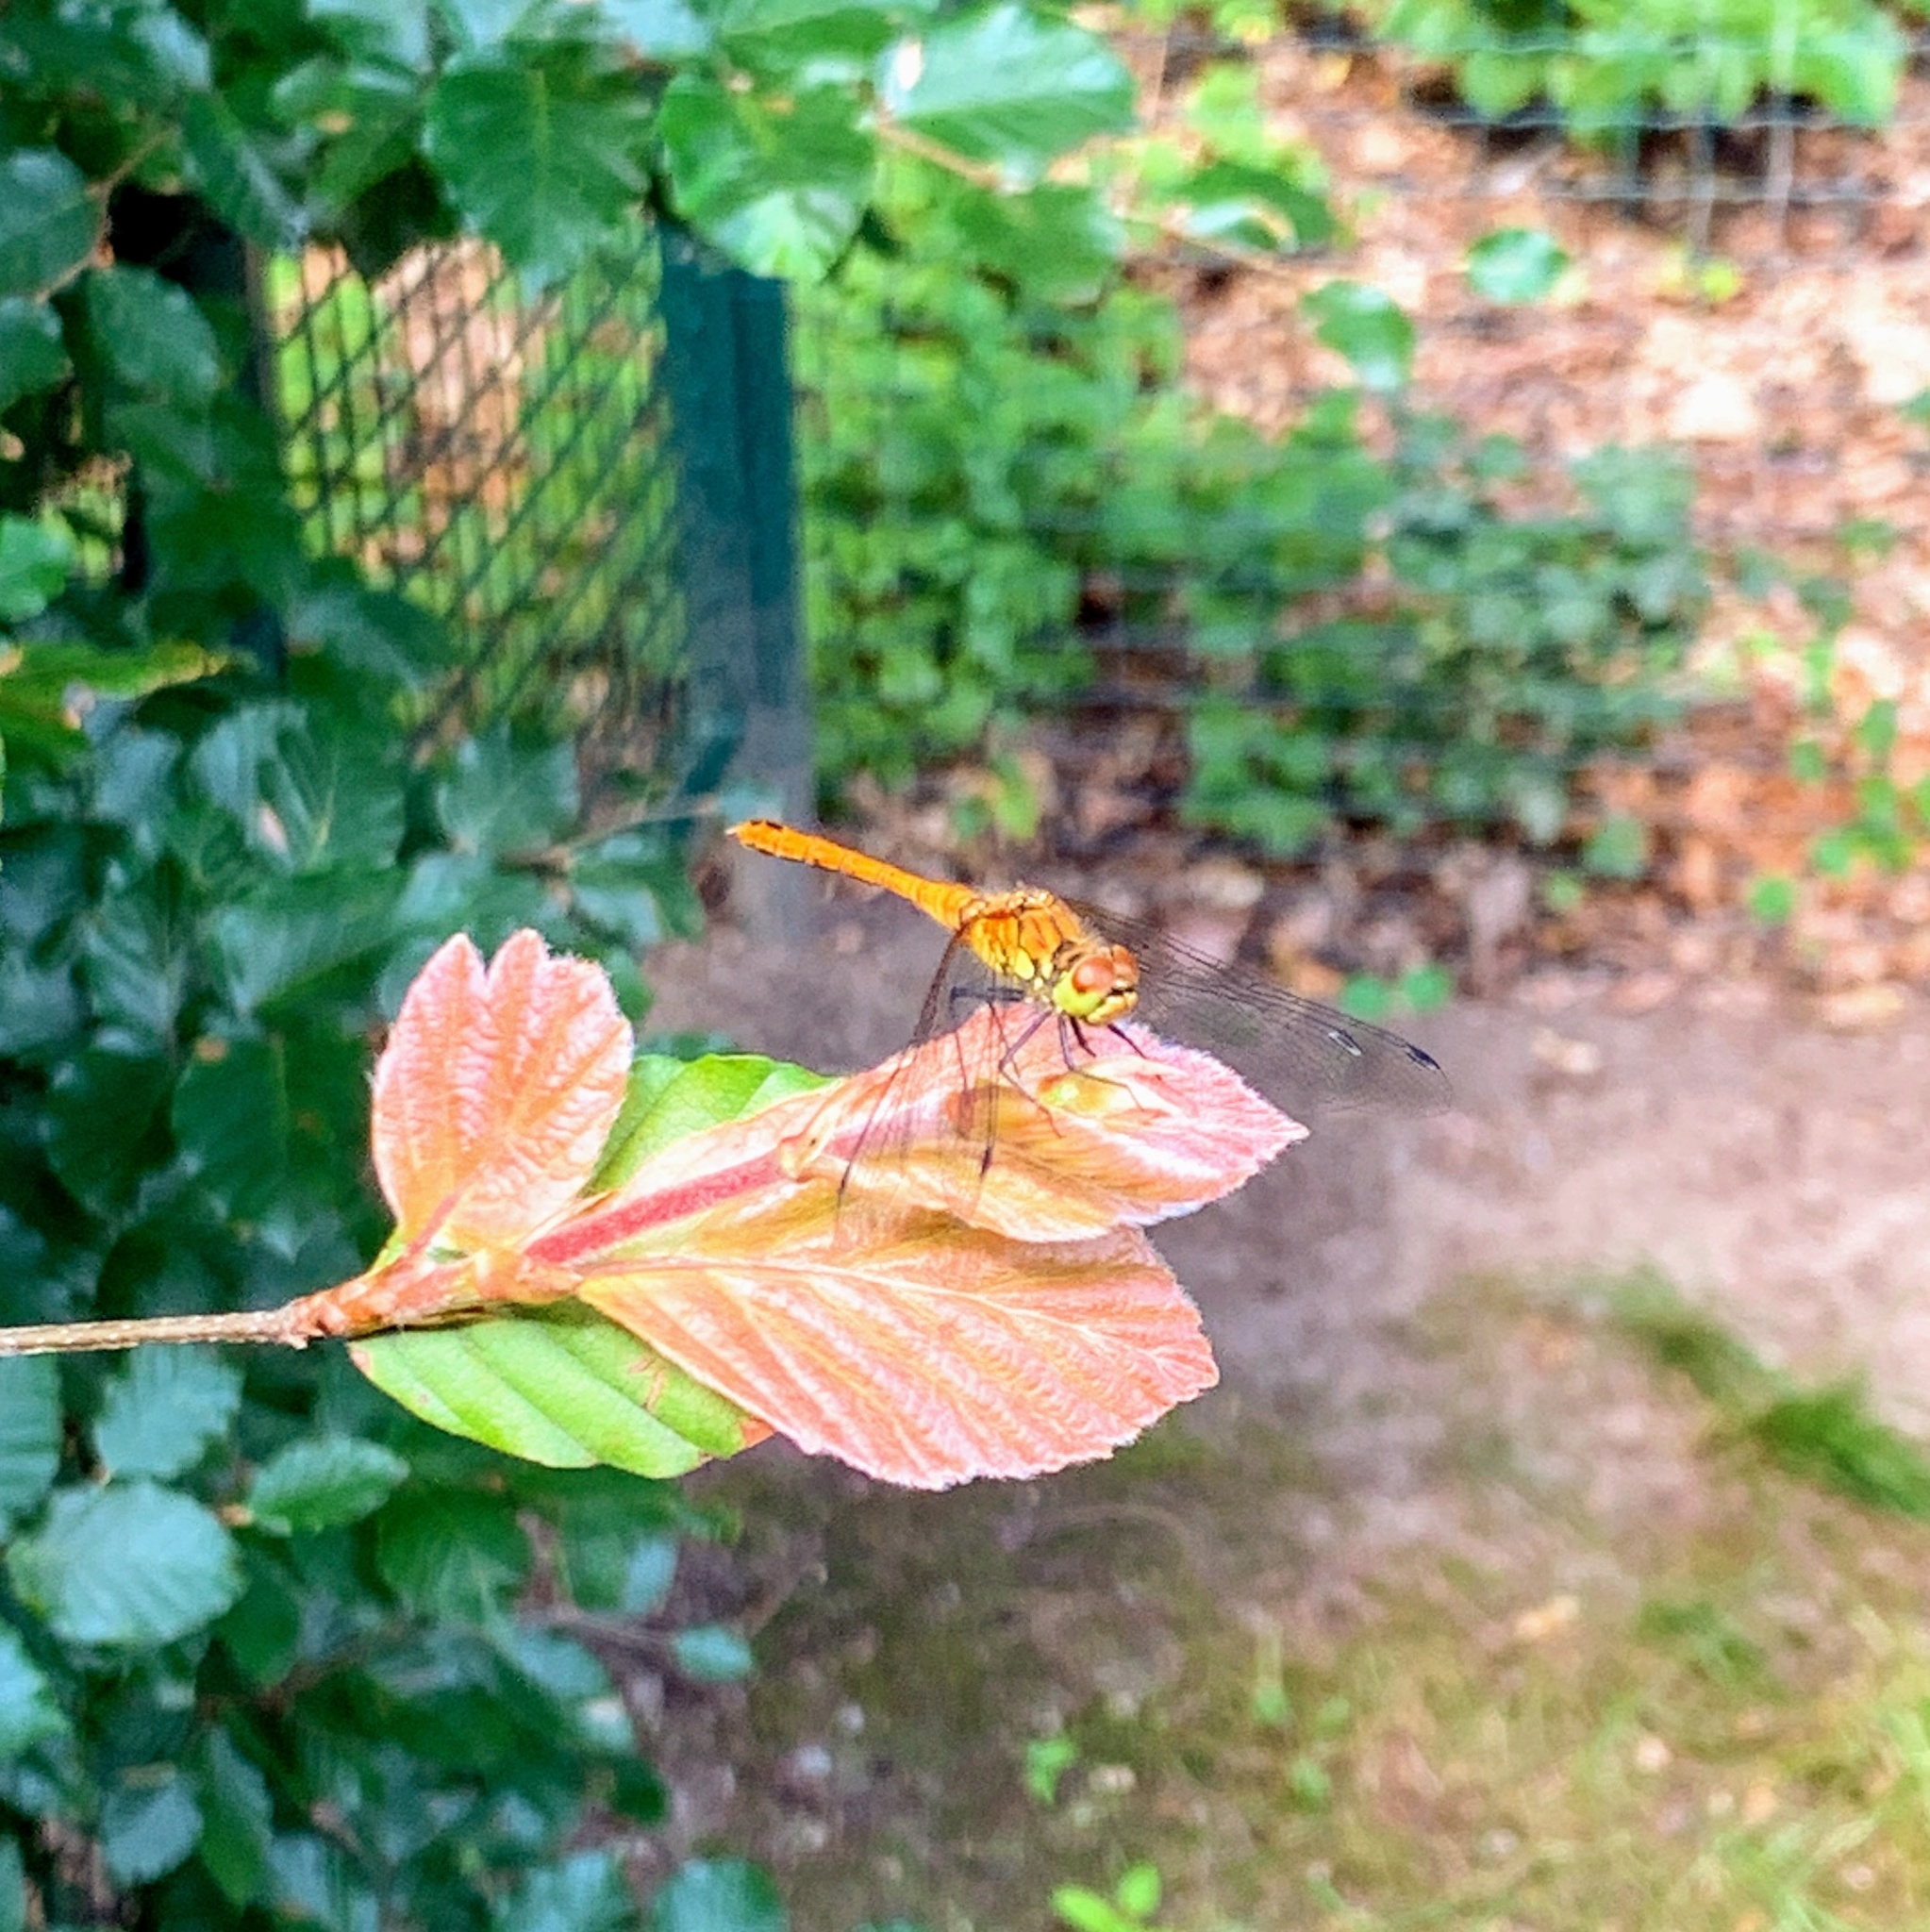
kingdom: Animalia
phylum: Arthropoda
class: Insecta
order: Odonata
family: Libellulidae
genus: Sympetrum
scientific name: Sympetrum sanguineum
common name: Ruddy darter
